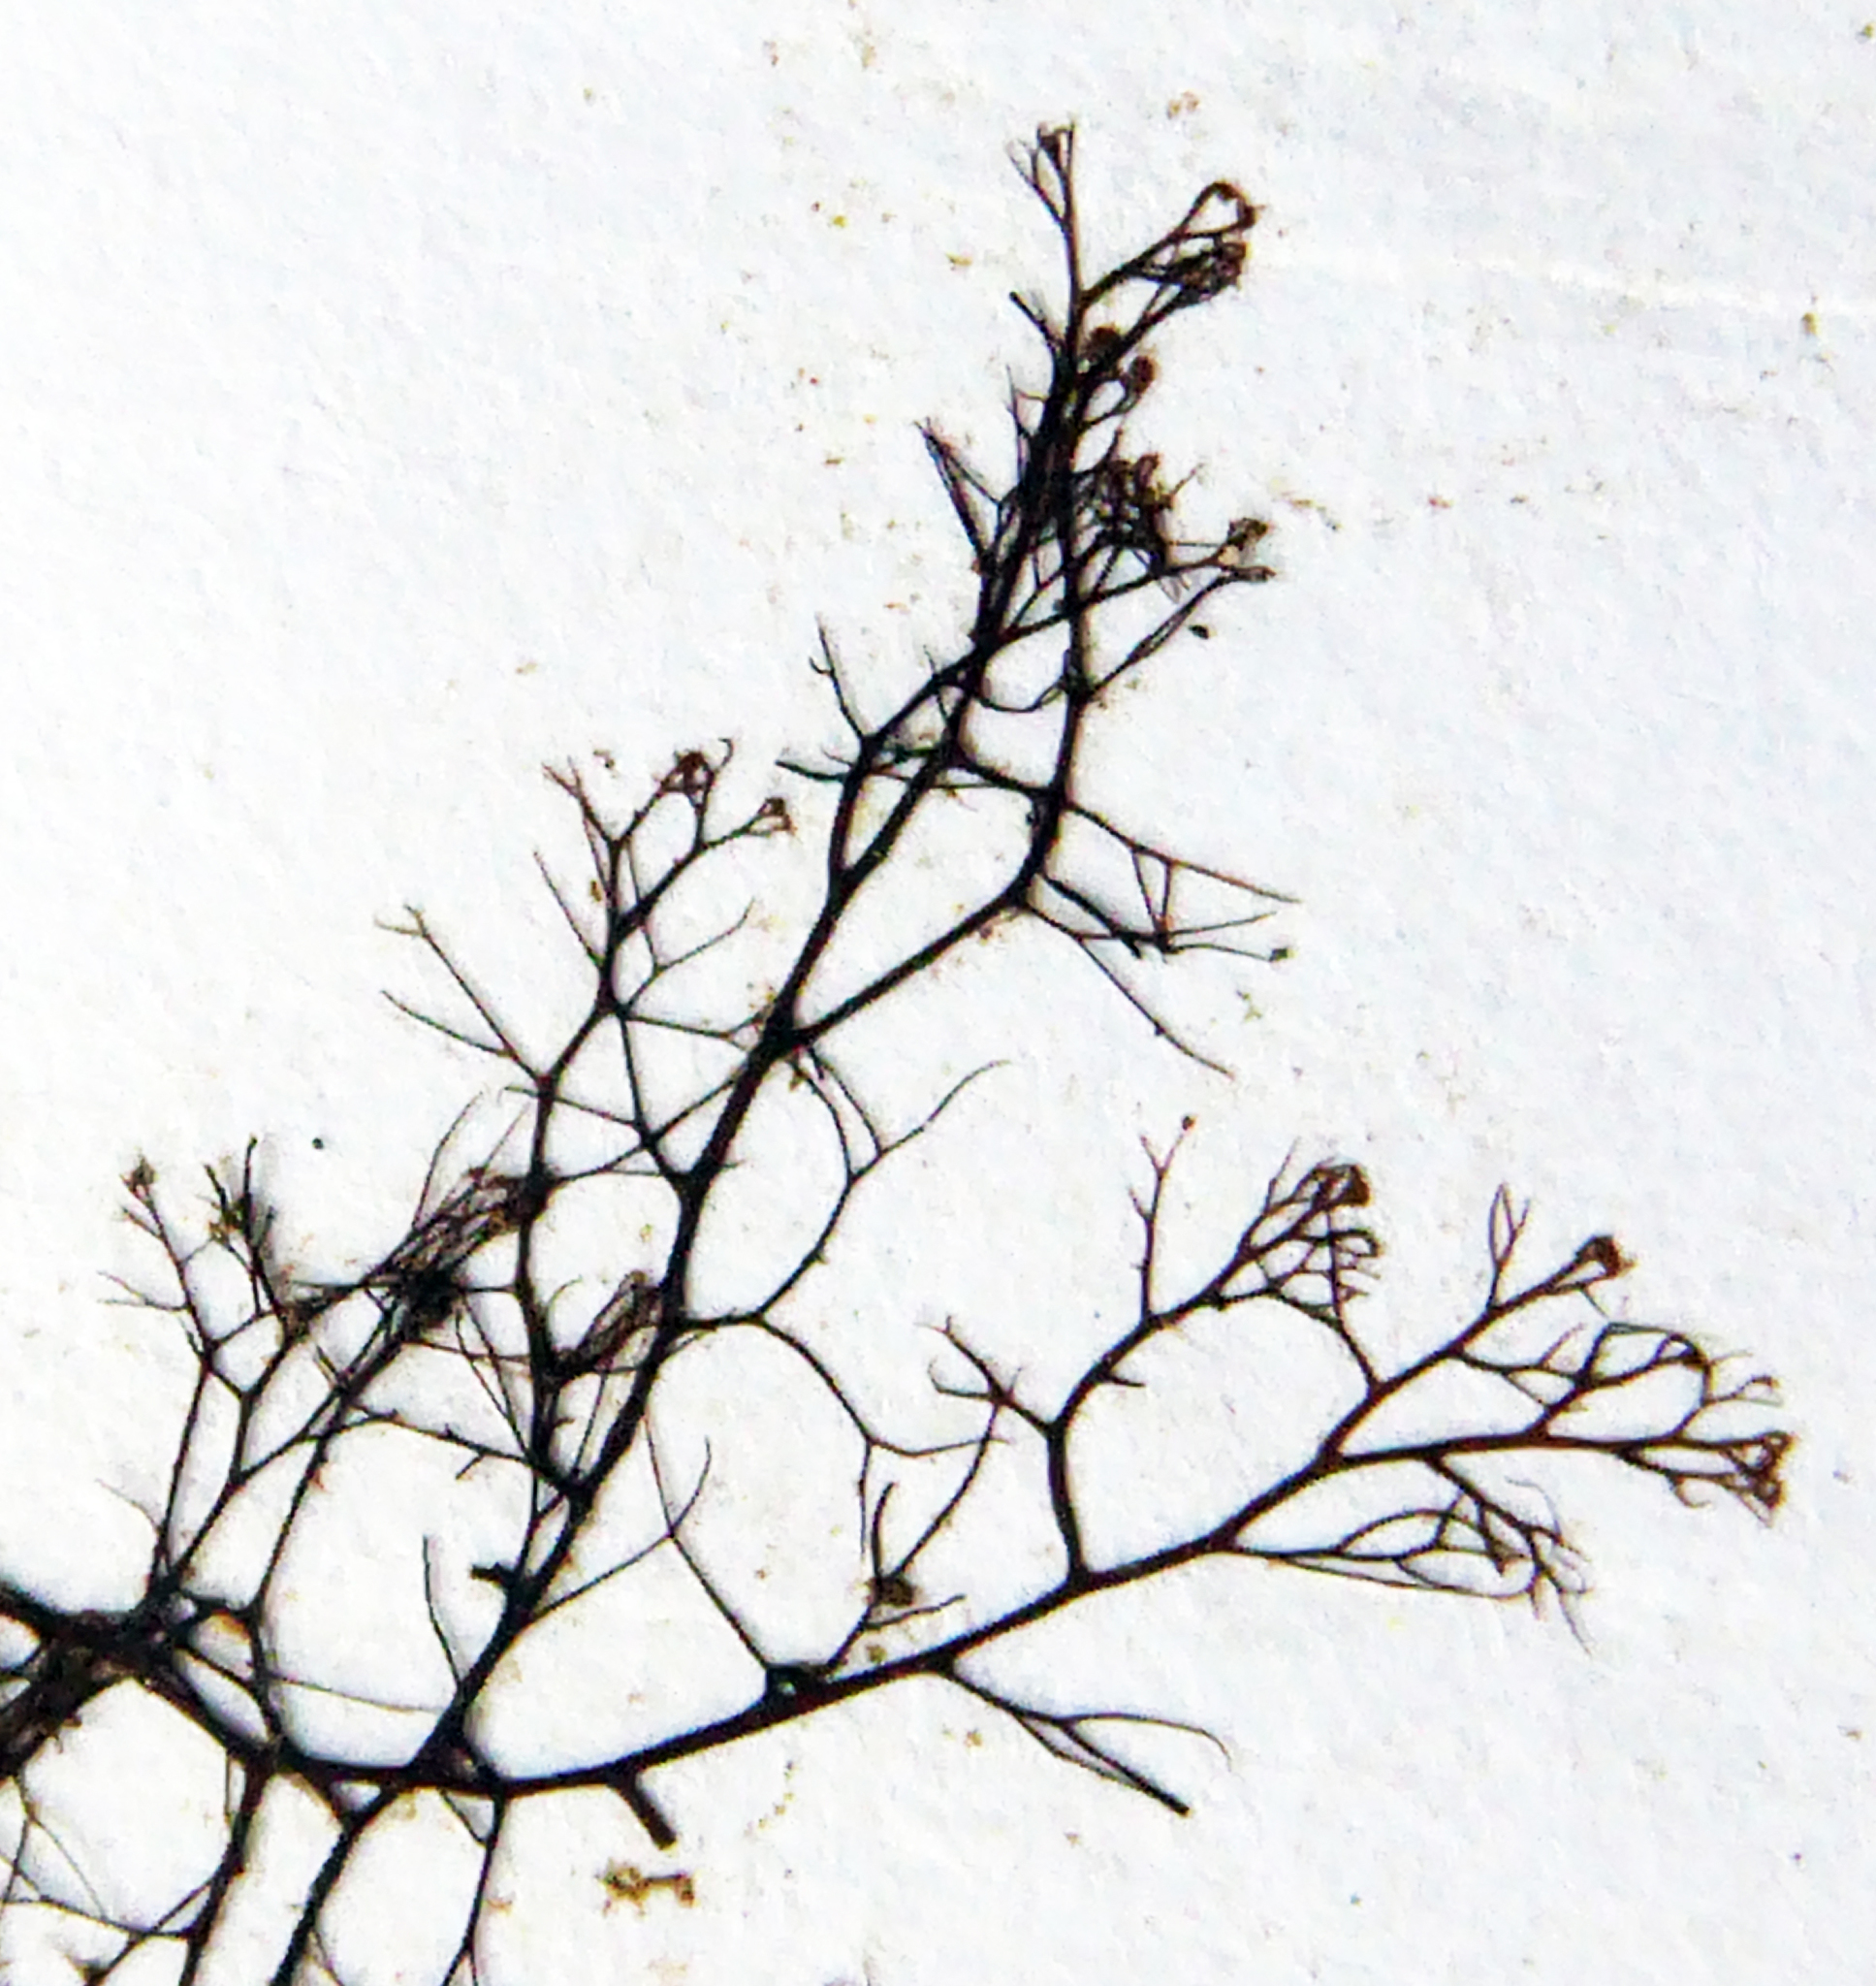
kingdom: Plantae
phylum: Rhodophyta
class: Florideophyceae
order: Ceramiales
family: Rhodomelaceae
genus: Bostrychia
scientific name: Bostrychia harveyi
